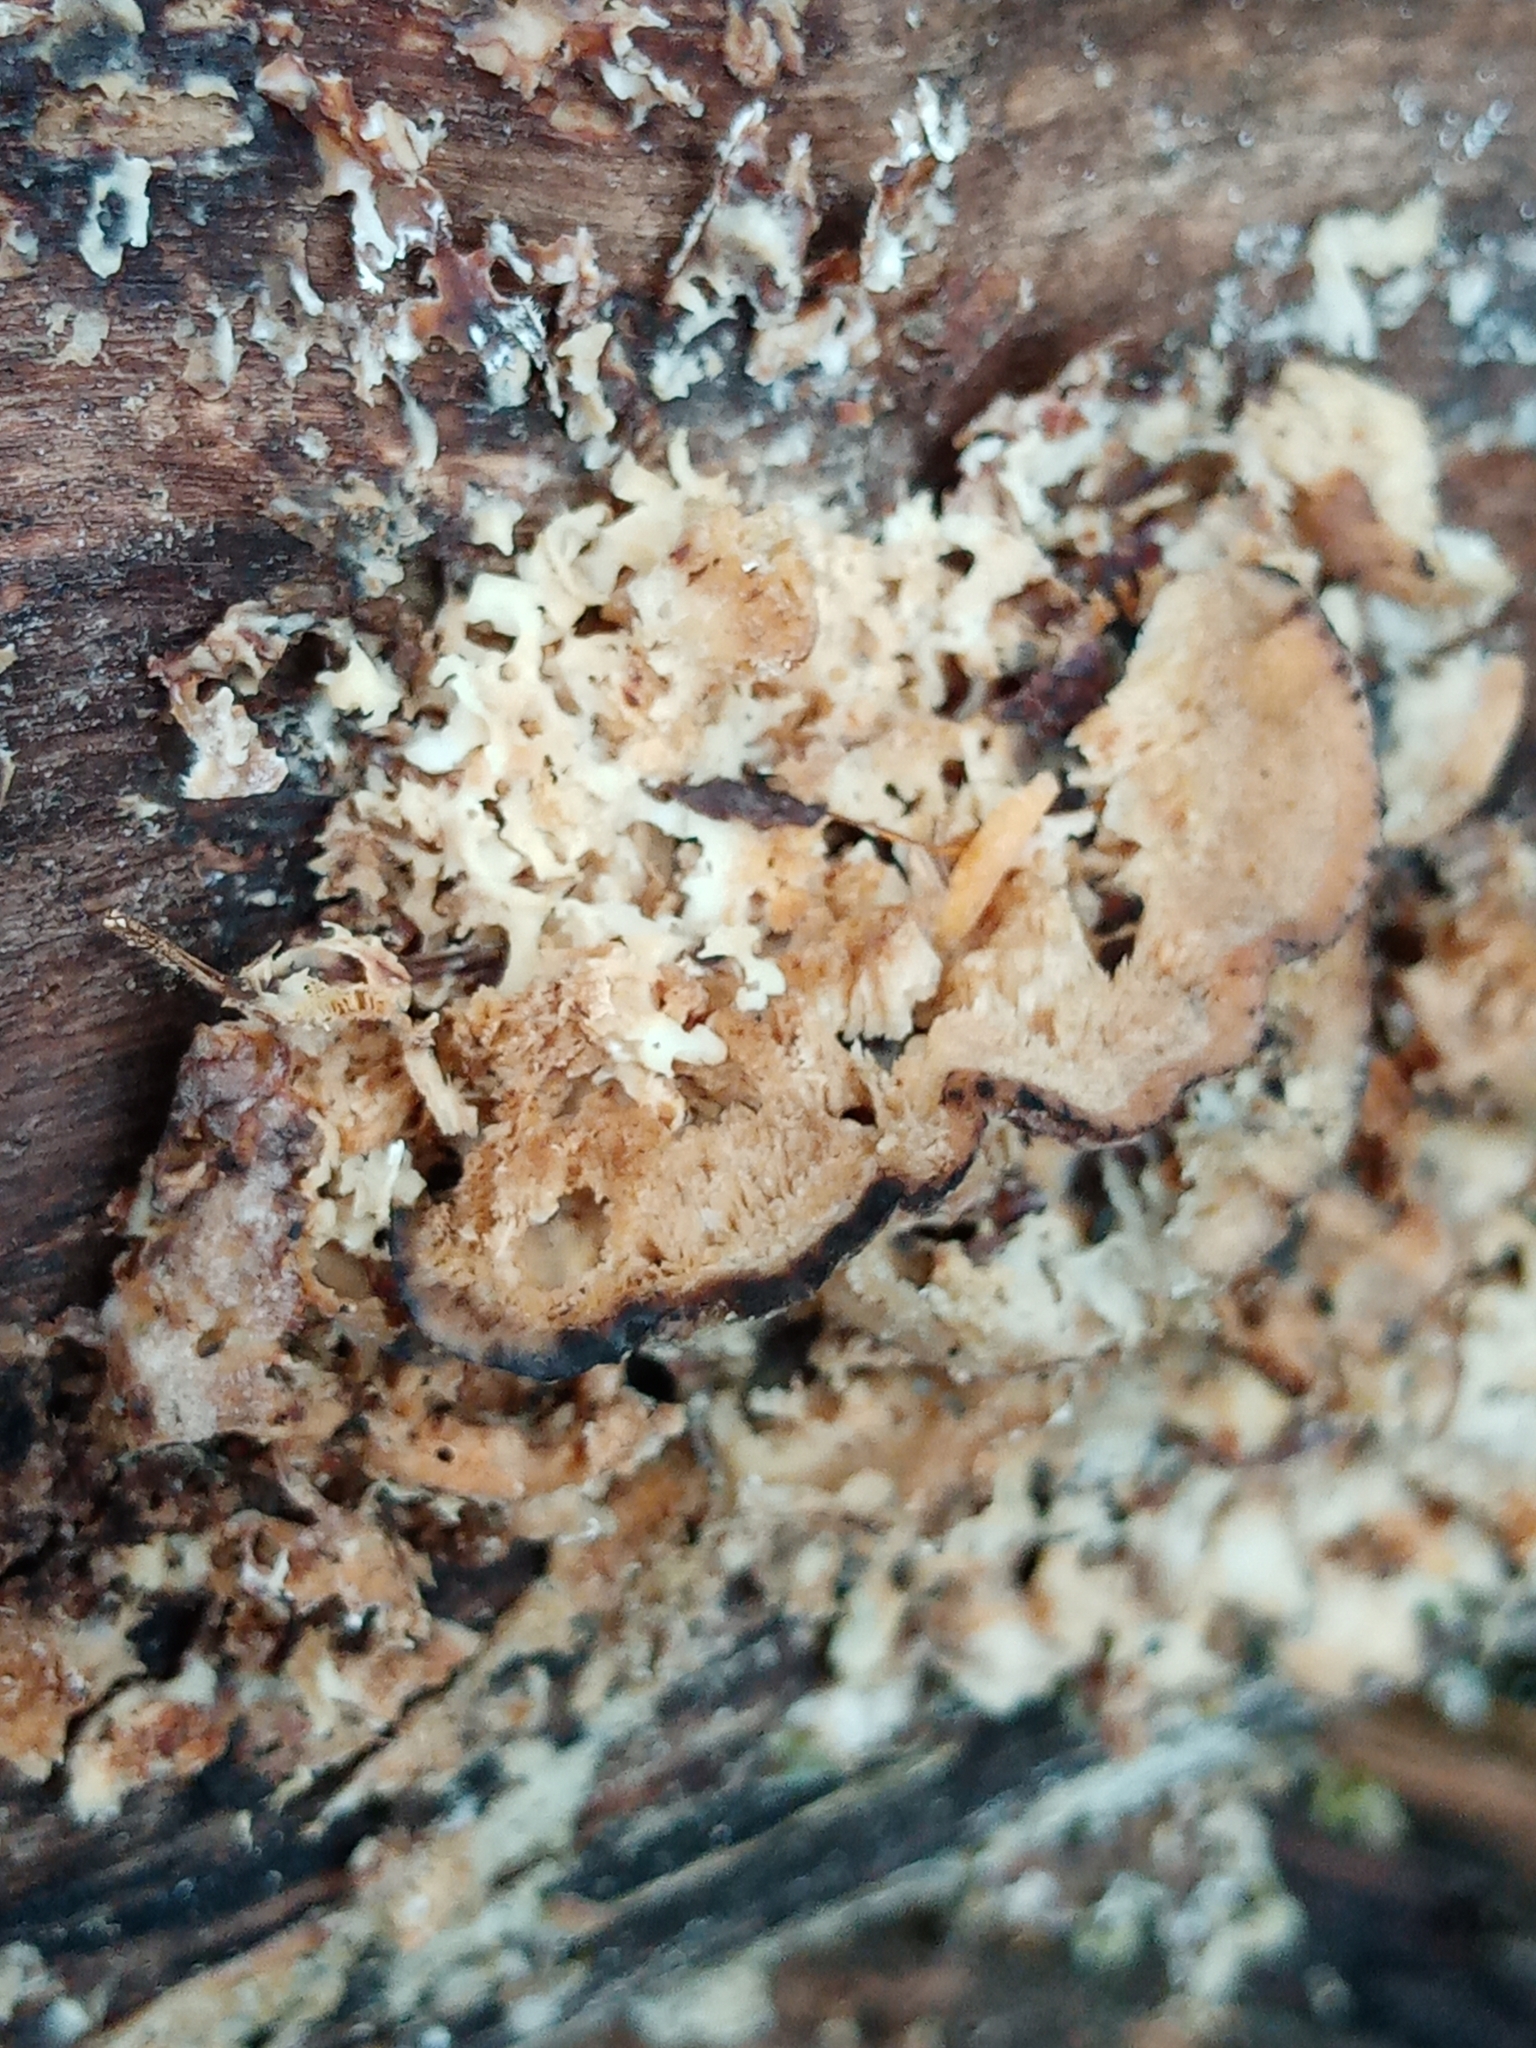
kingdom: Fungi
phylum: Basidiomycota
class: Agaricomycetes
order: Polyporales
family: Sparassidaceae
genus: Sparassis
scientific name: Sparassis crispa
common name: Brain fungus
